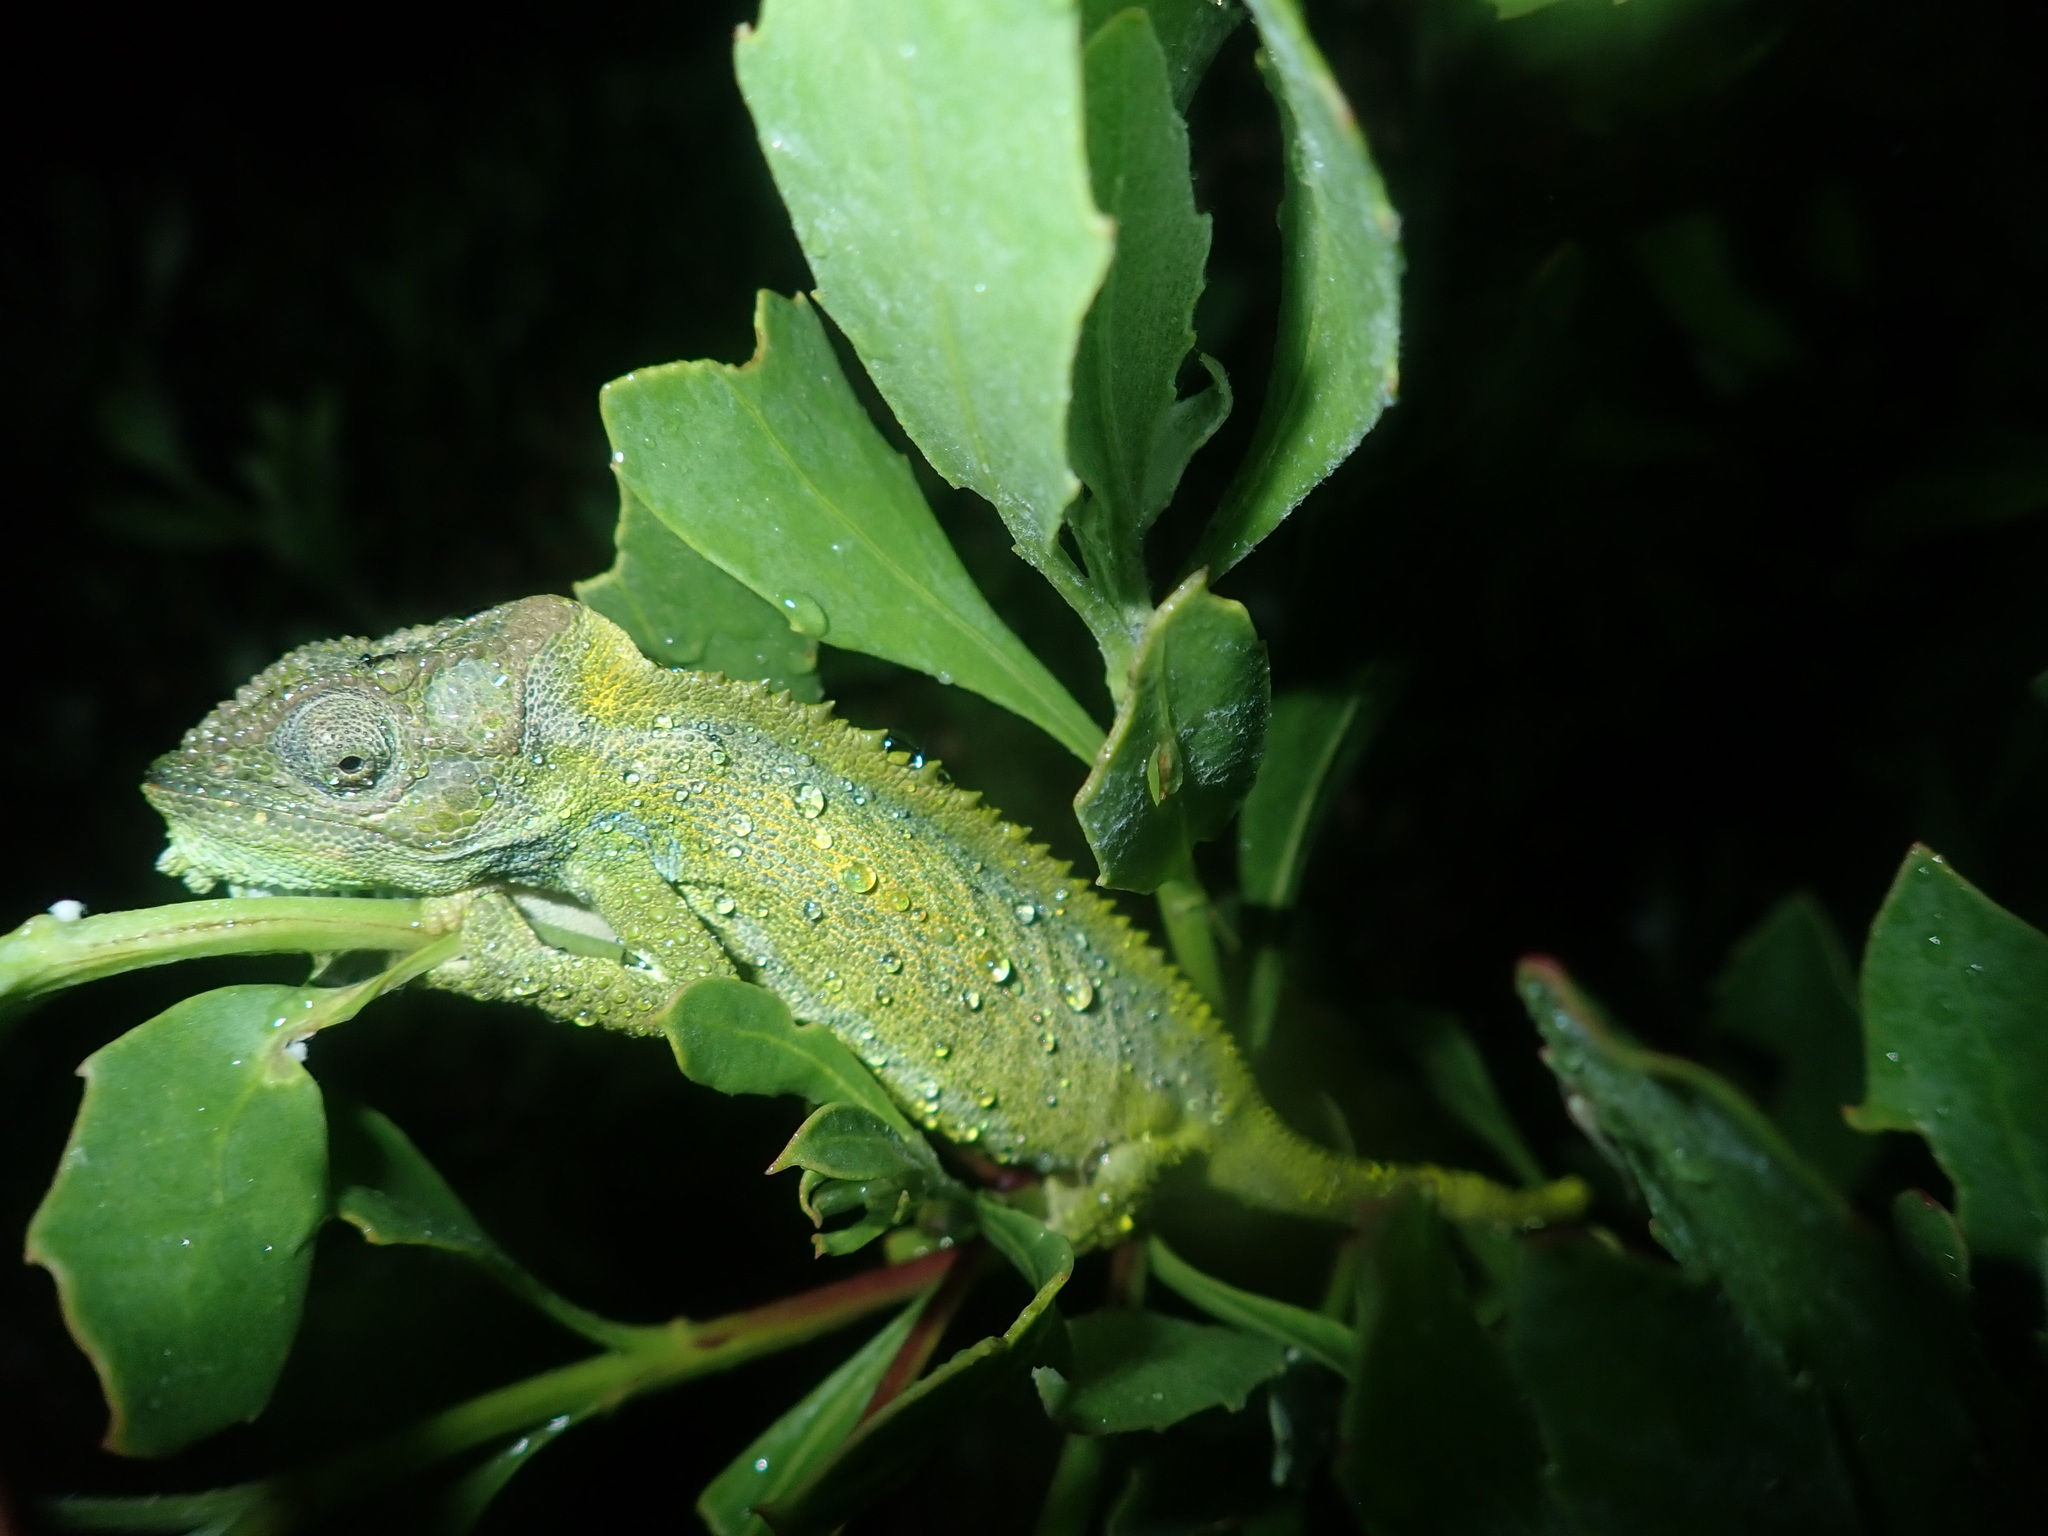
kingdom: Animalia
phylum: Chordata
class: Squamata
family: Chamaeleonidae
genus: Bradypodion
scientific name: Bradypodion pumilum
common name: Cape dwarf chameleon
